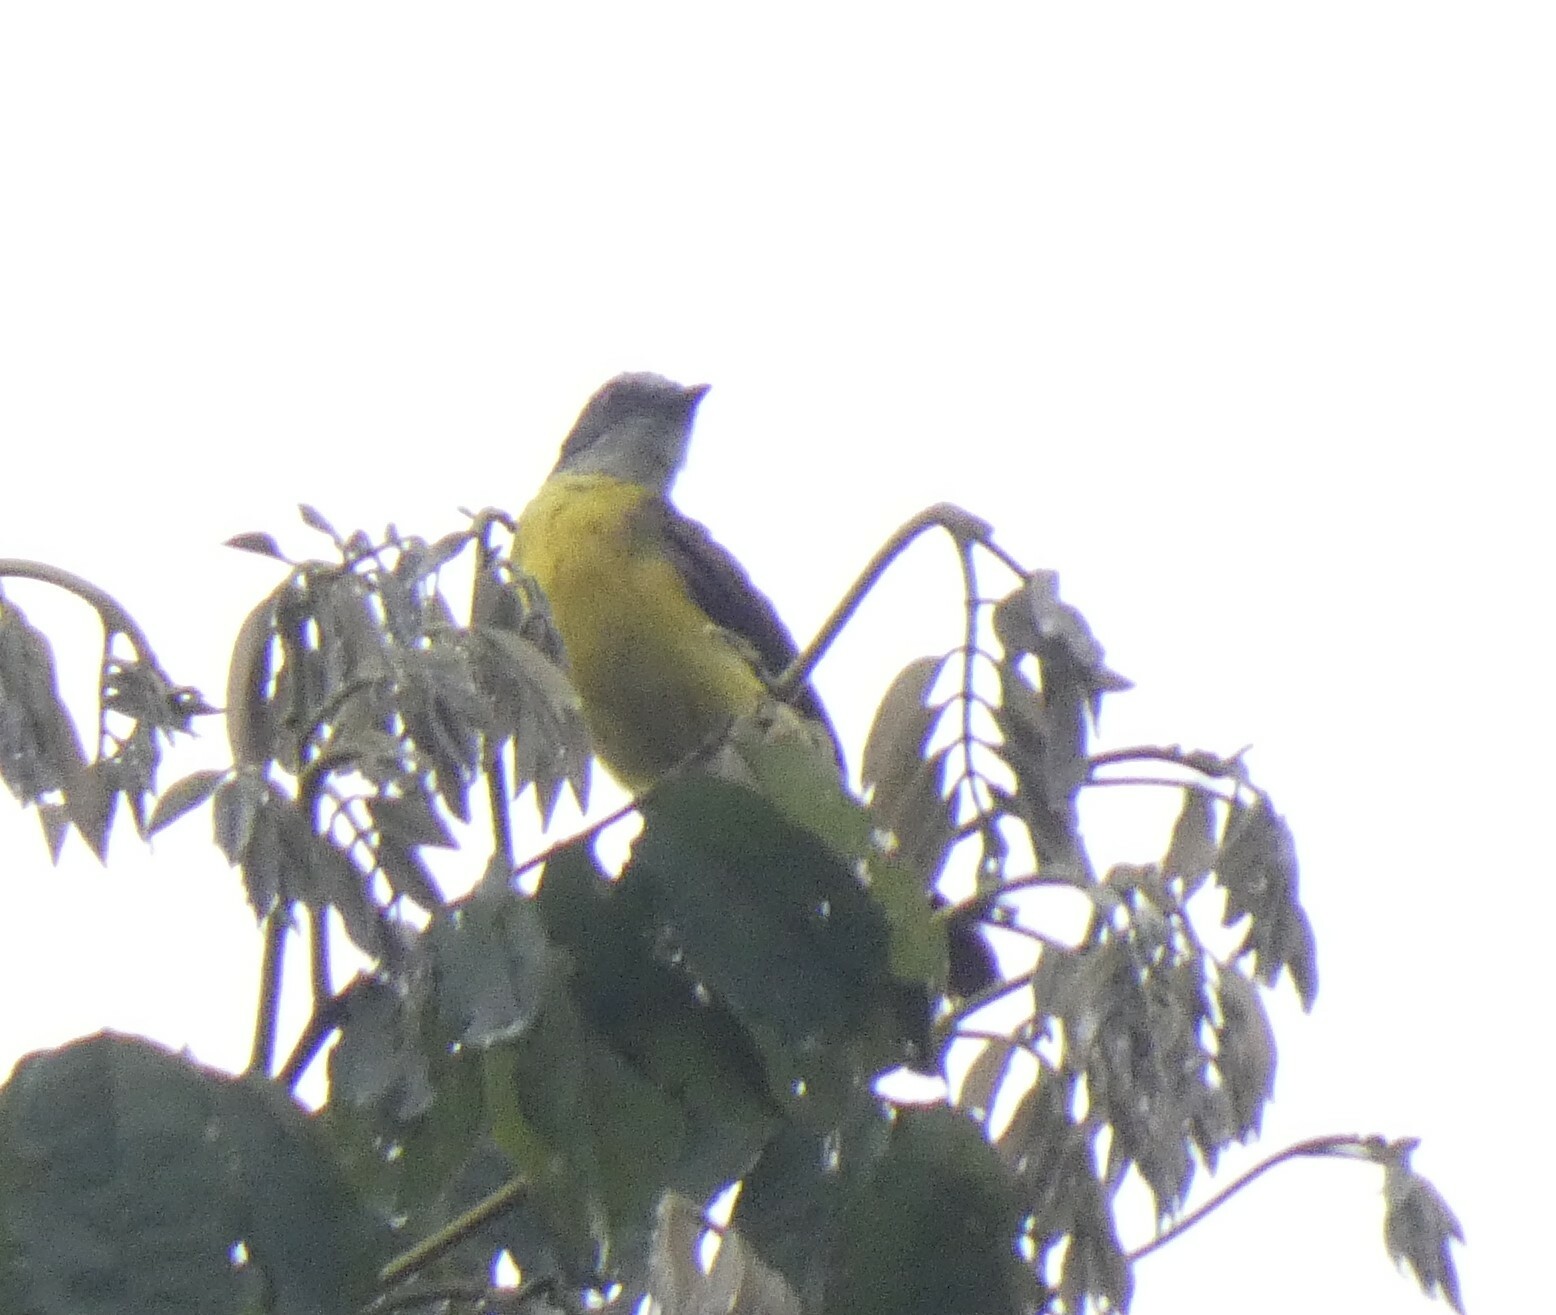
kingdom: Animalia
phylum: Chordata
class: Aves
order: Passeriformes
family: Tyrannidae
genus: Myiozetetes
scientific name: Myiozetetes granadensis
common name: Gray-capped flycatcher
